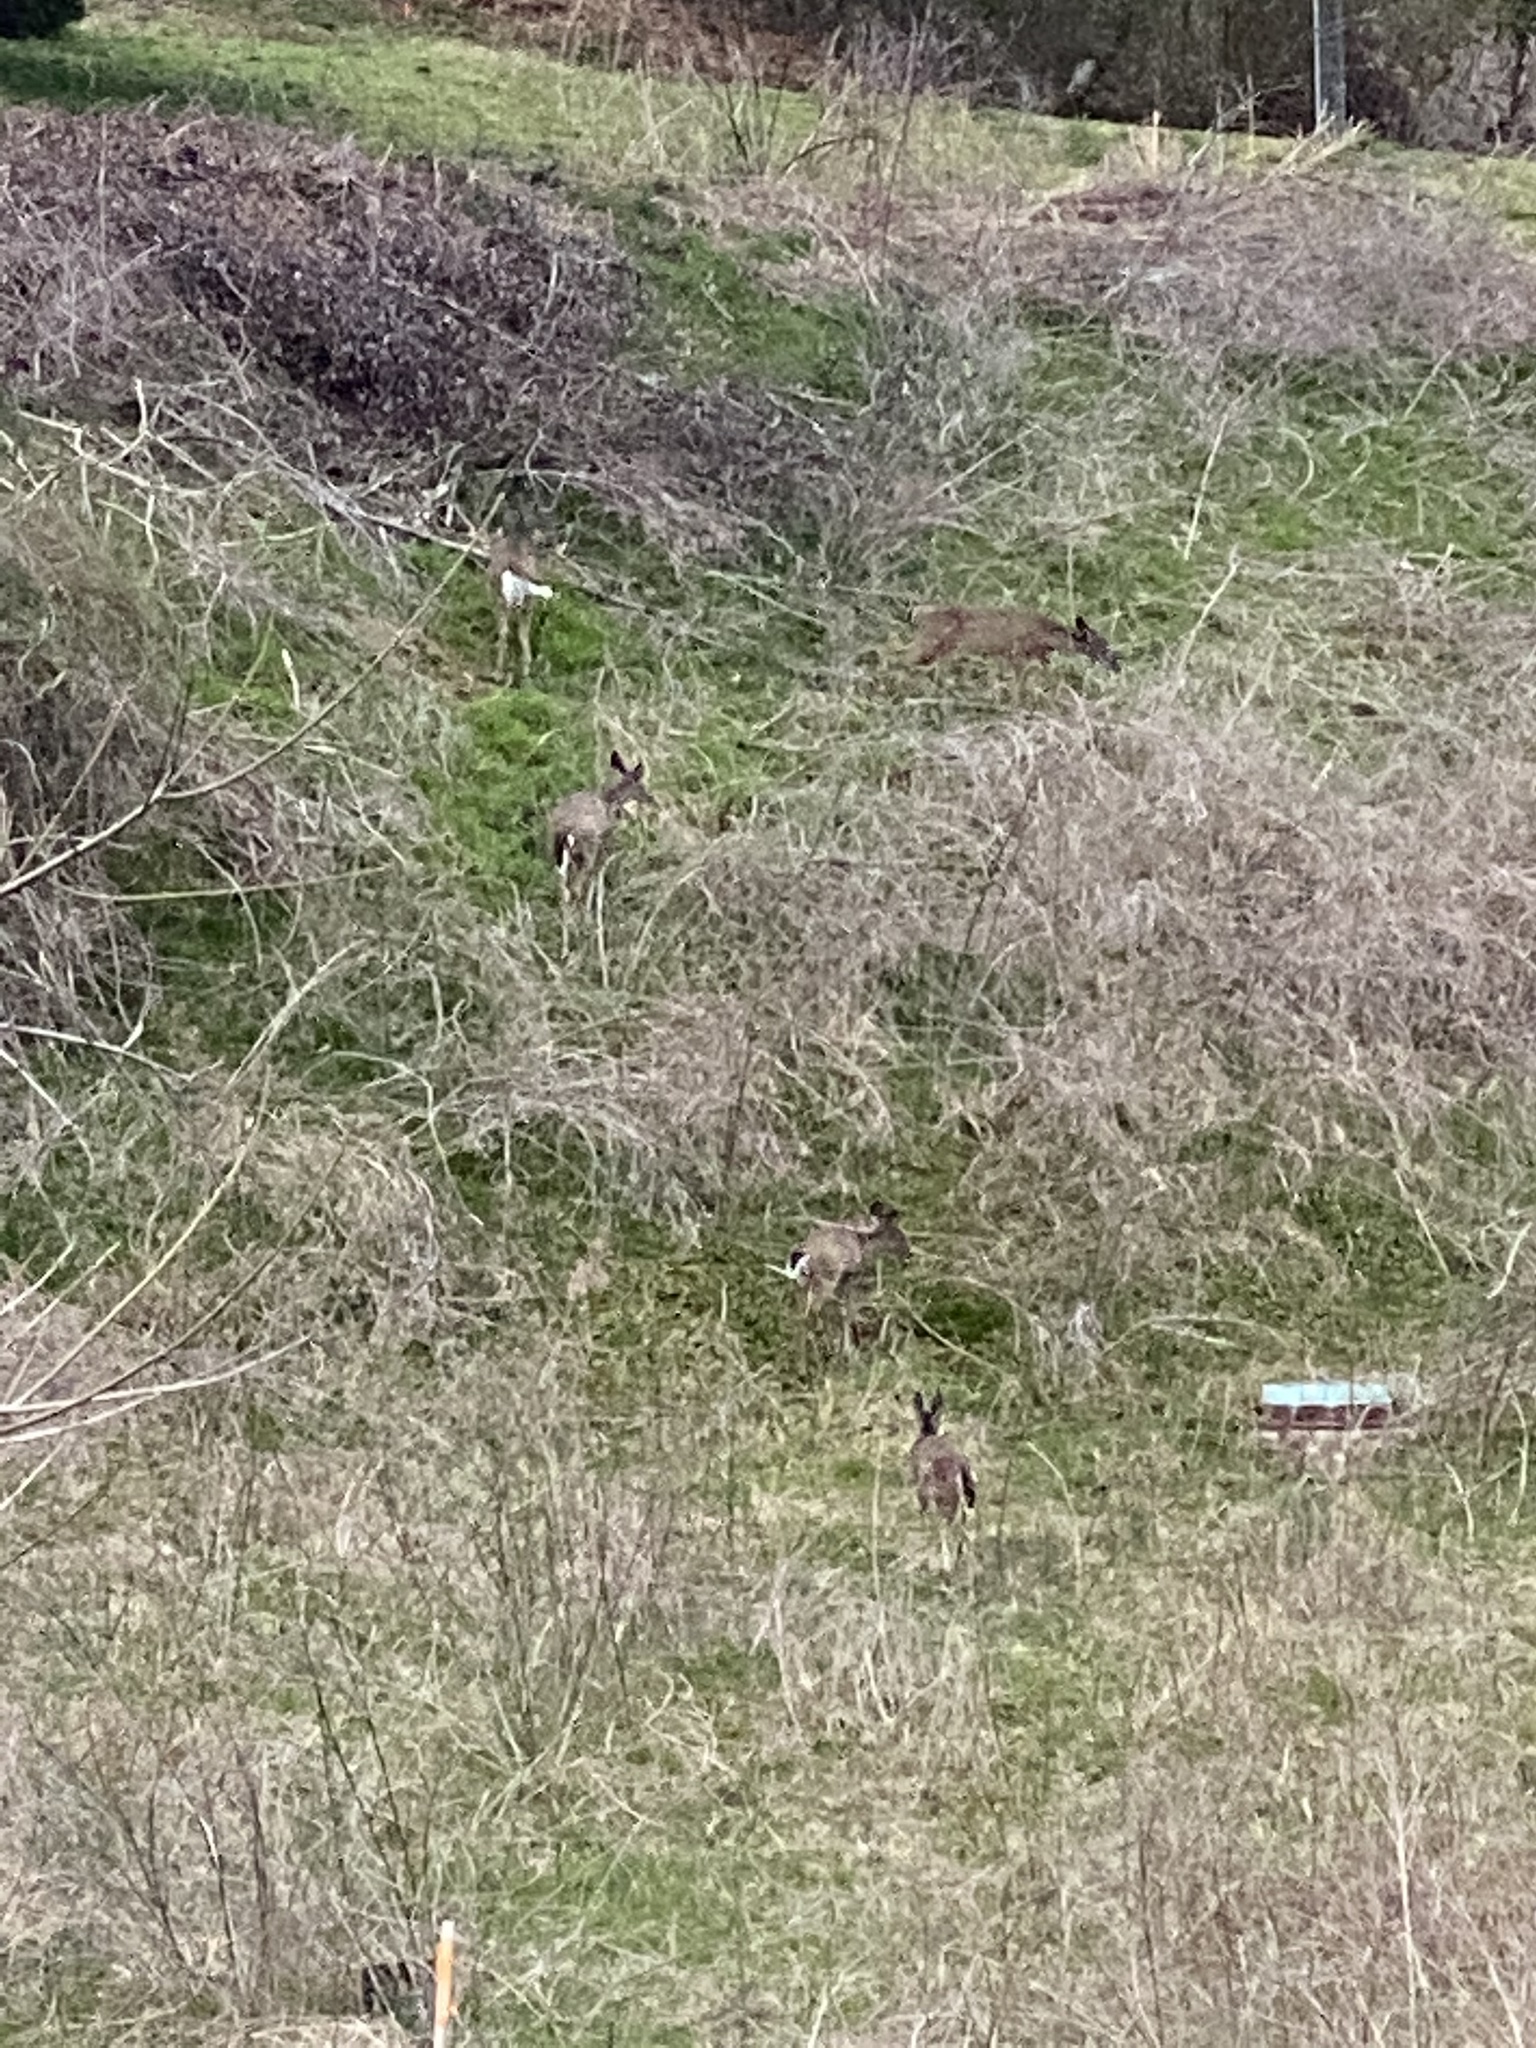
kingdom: Animalia
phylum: Chordata
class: Mammalia
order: Artiodactyla
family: Cervidae
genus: Odocoileus
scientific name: Odocoileus virginianus
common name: White-tailed deer
